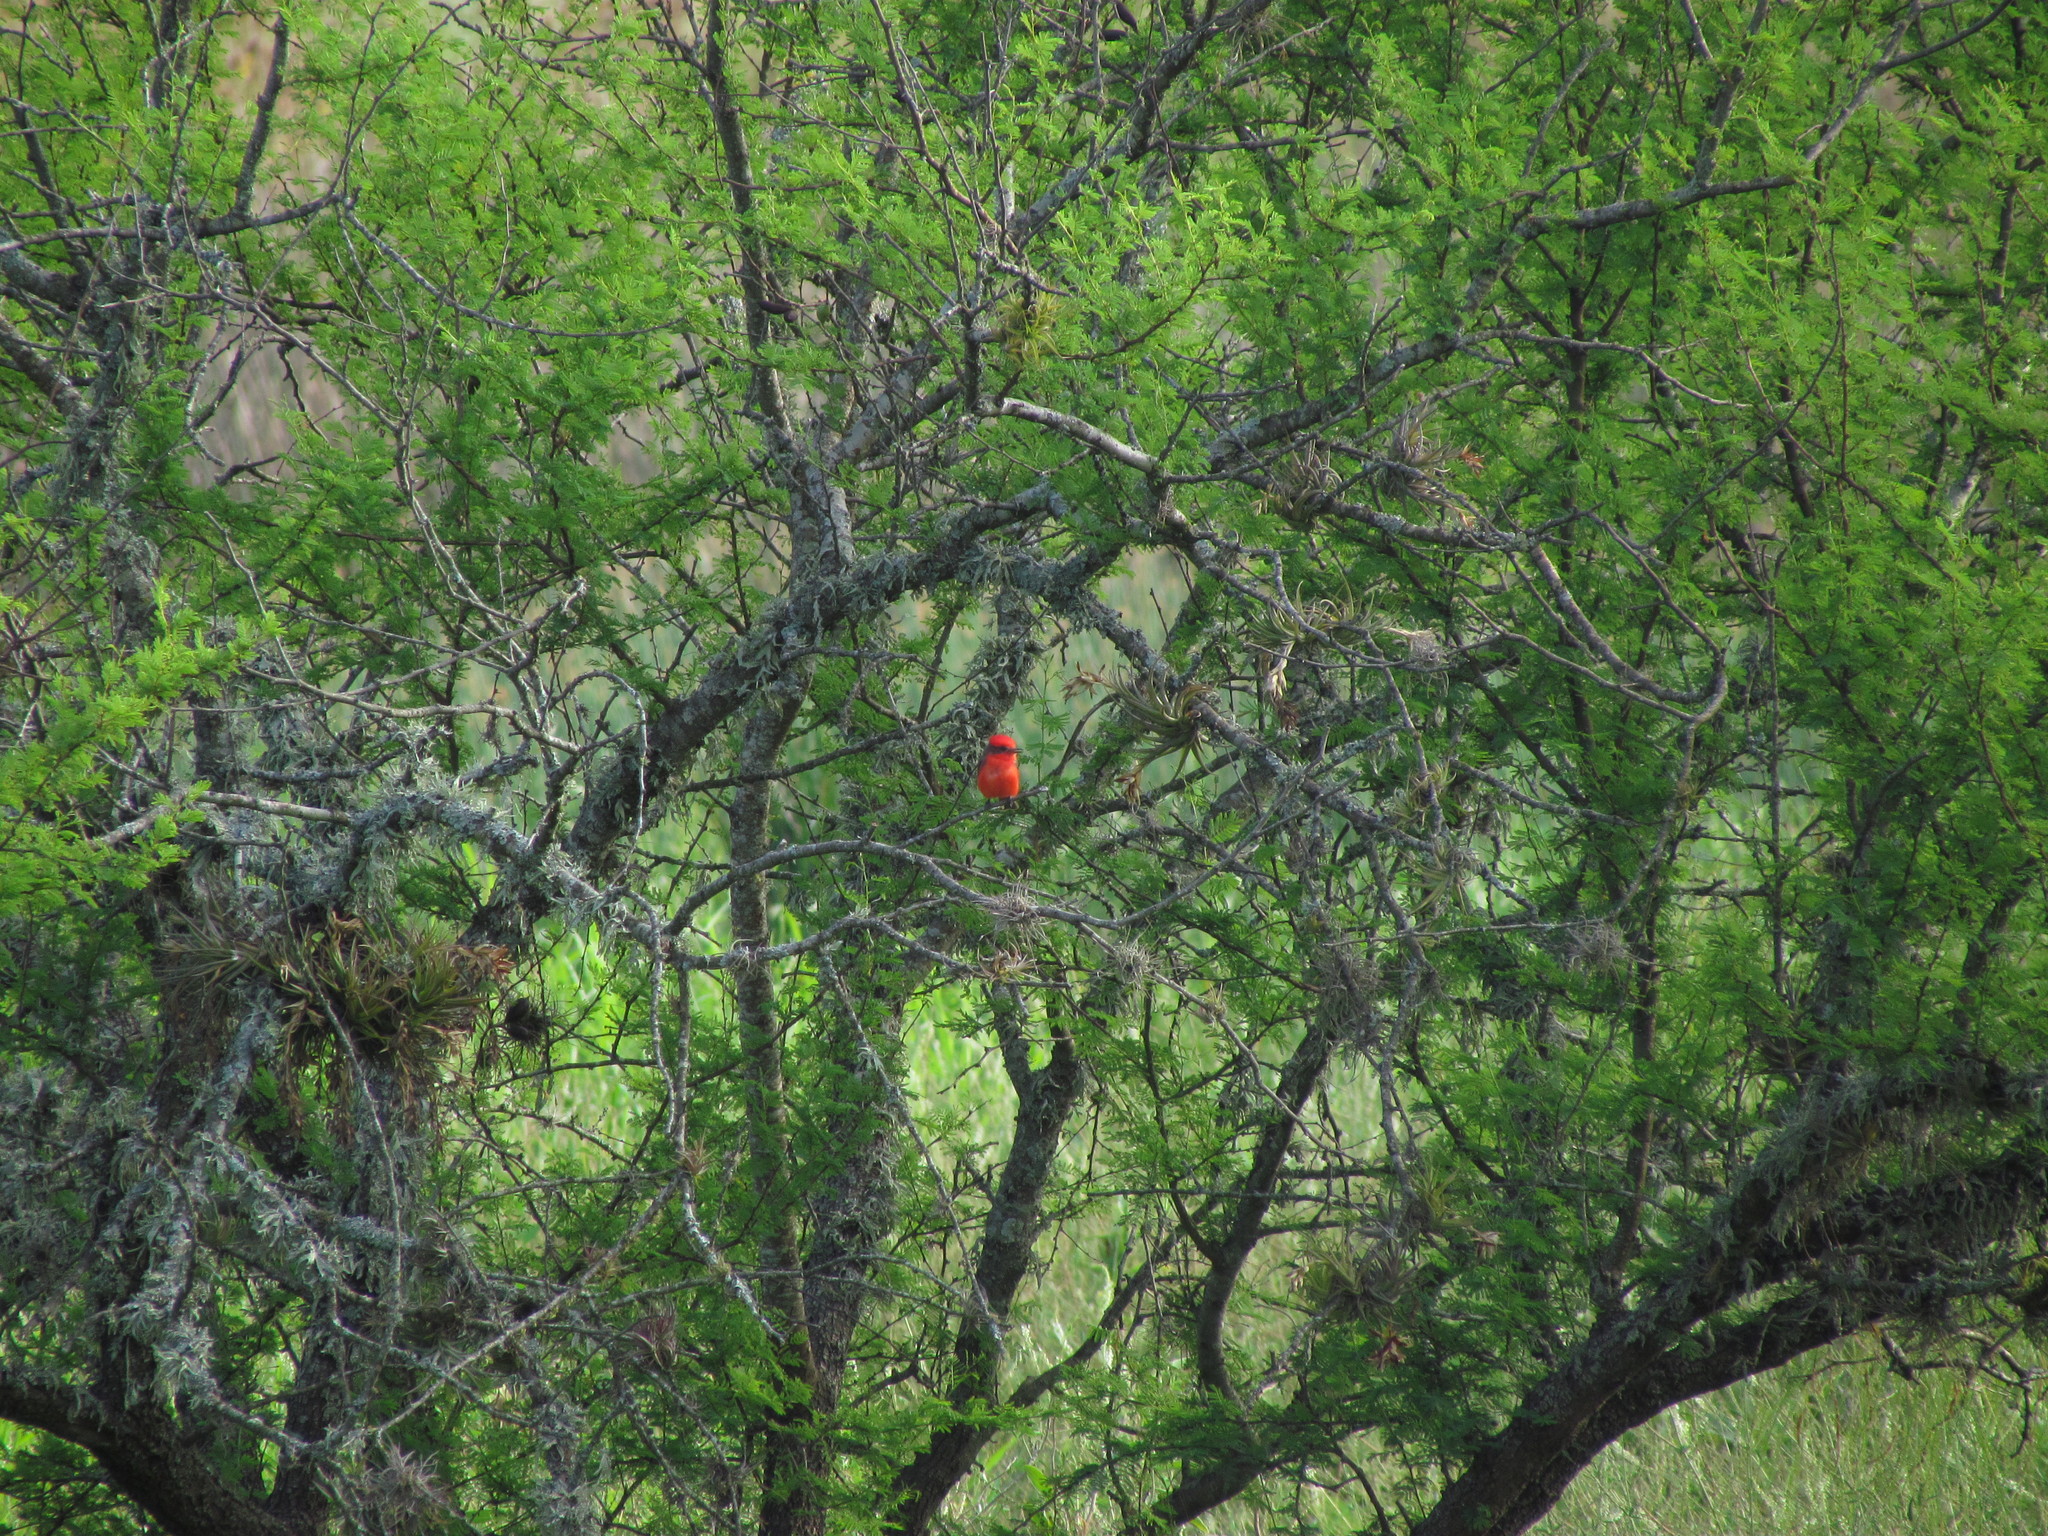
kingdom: Animalia
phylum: Chordata
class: Aves
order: Passeriformes
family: Tyrannidae
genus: Pyrocephalus
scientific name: Pyrocephalus rubinus
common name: Vermilion flycatcher
